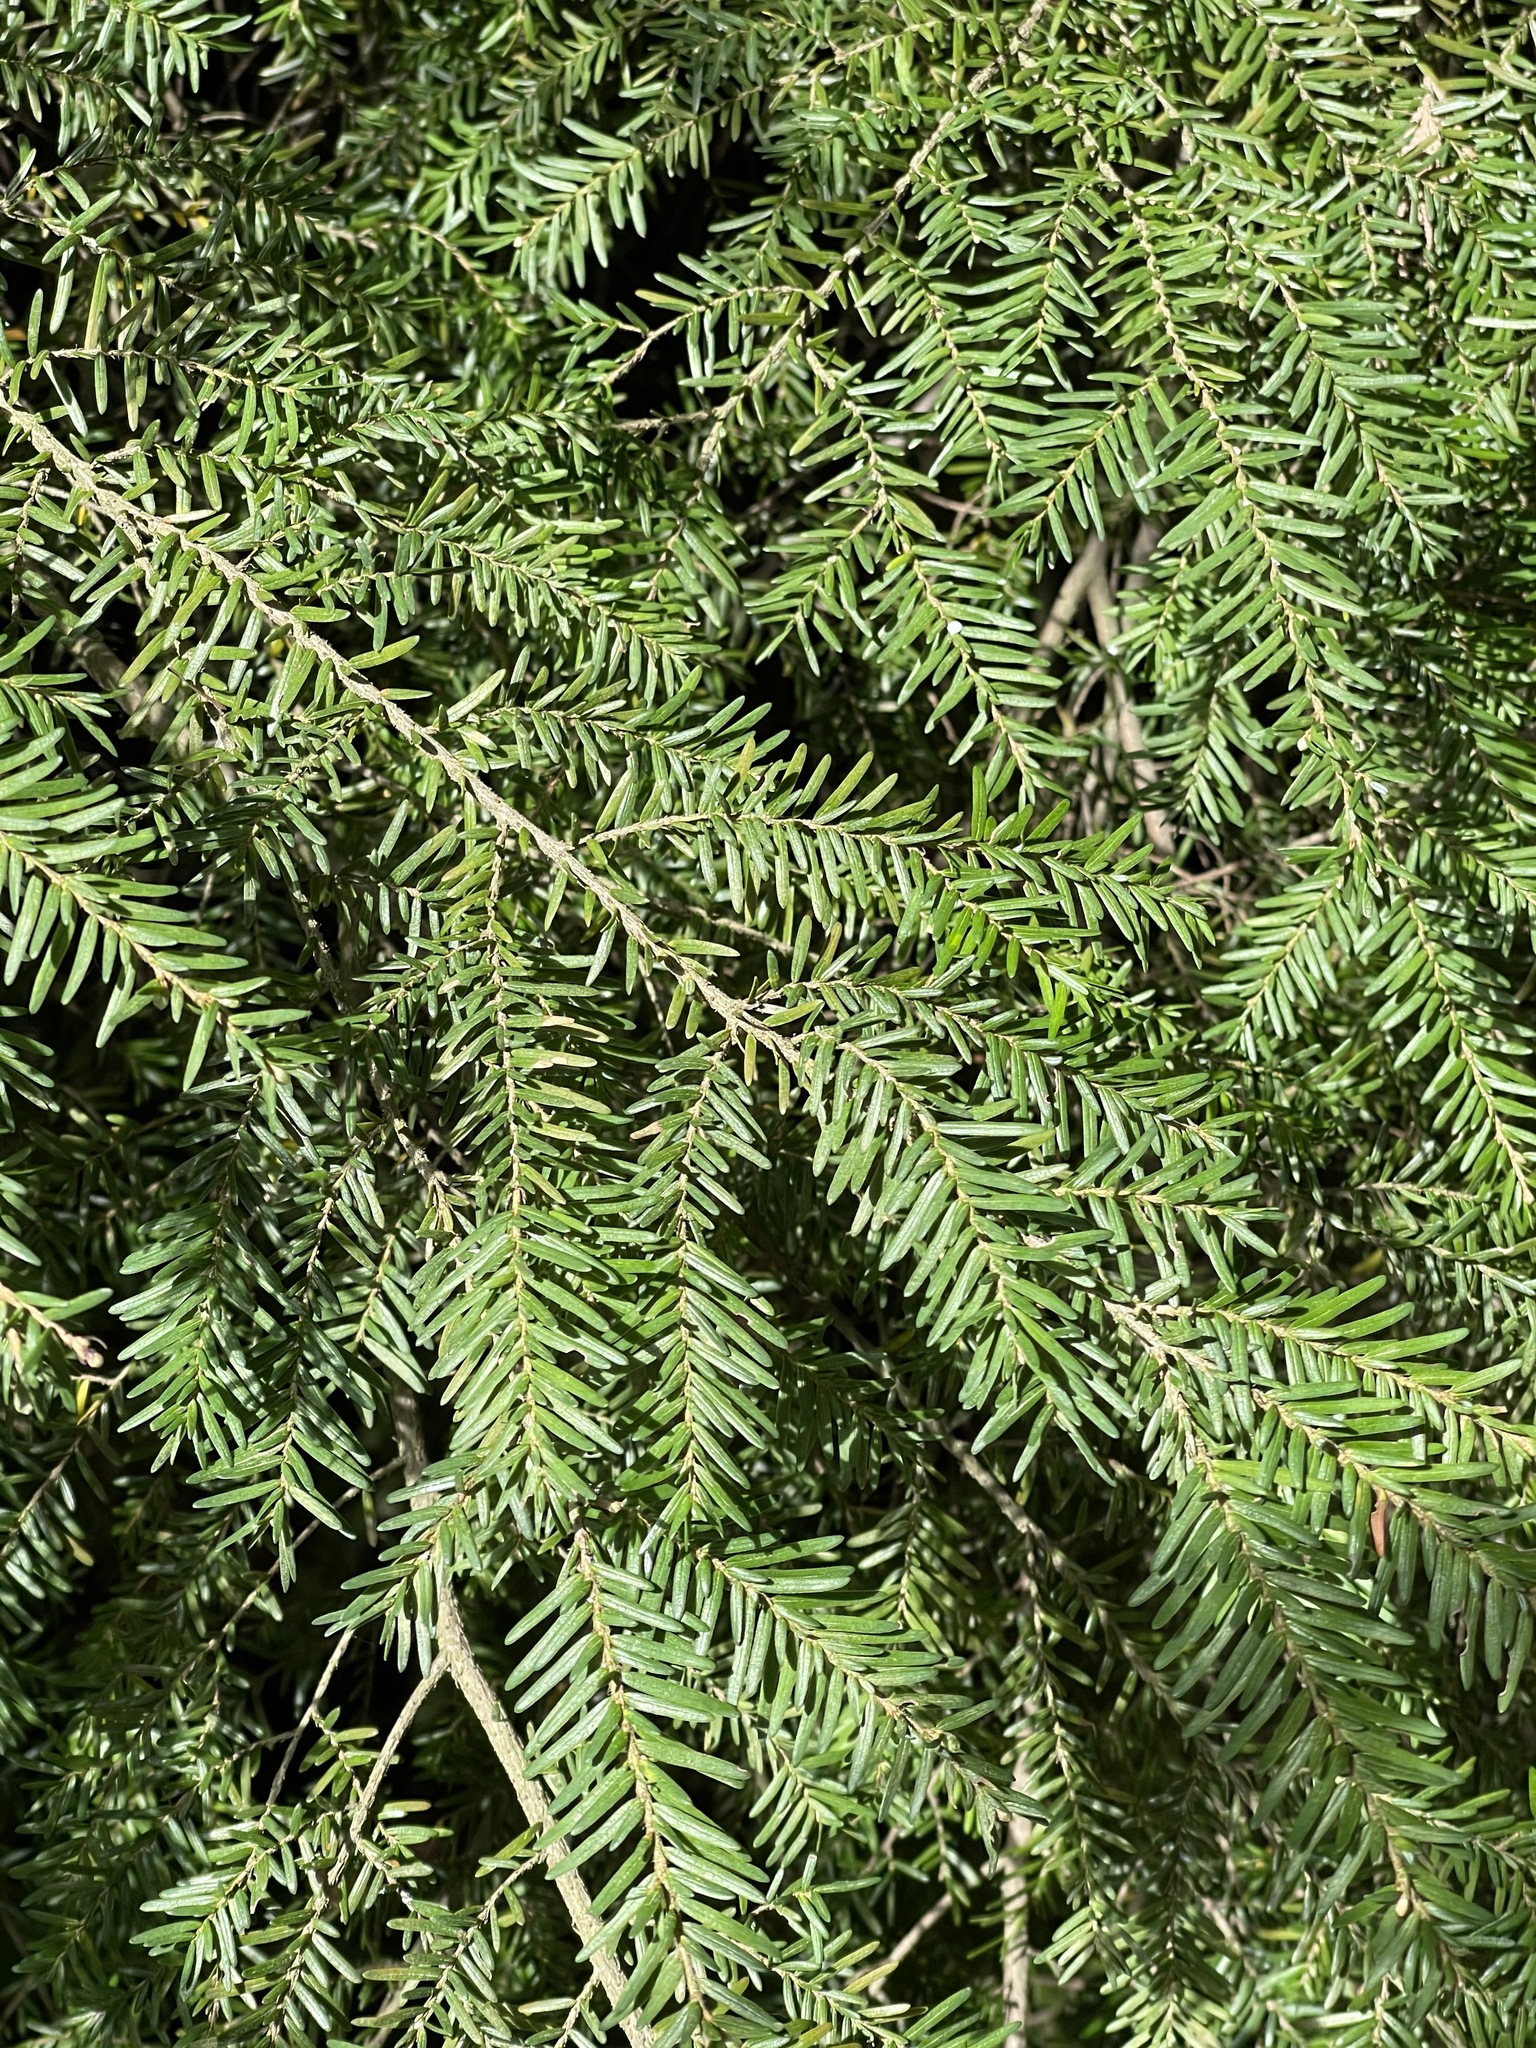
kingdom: Plantae
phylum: Tracheophyta
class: Pinopsida
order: Pinales
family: Pinaceae
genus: Tsuga
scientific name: Tsuga heterophylla
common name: Western hemlock
